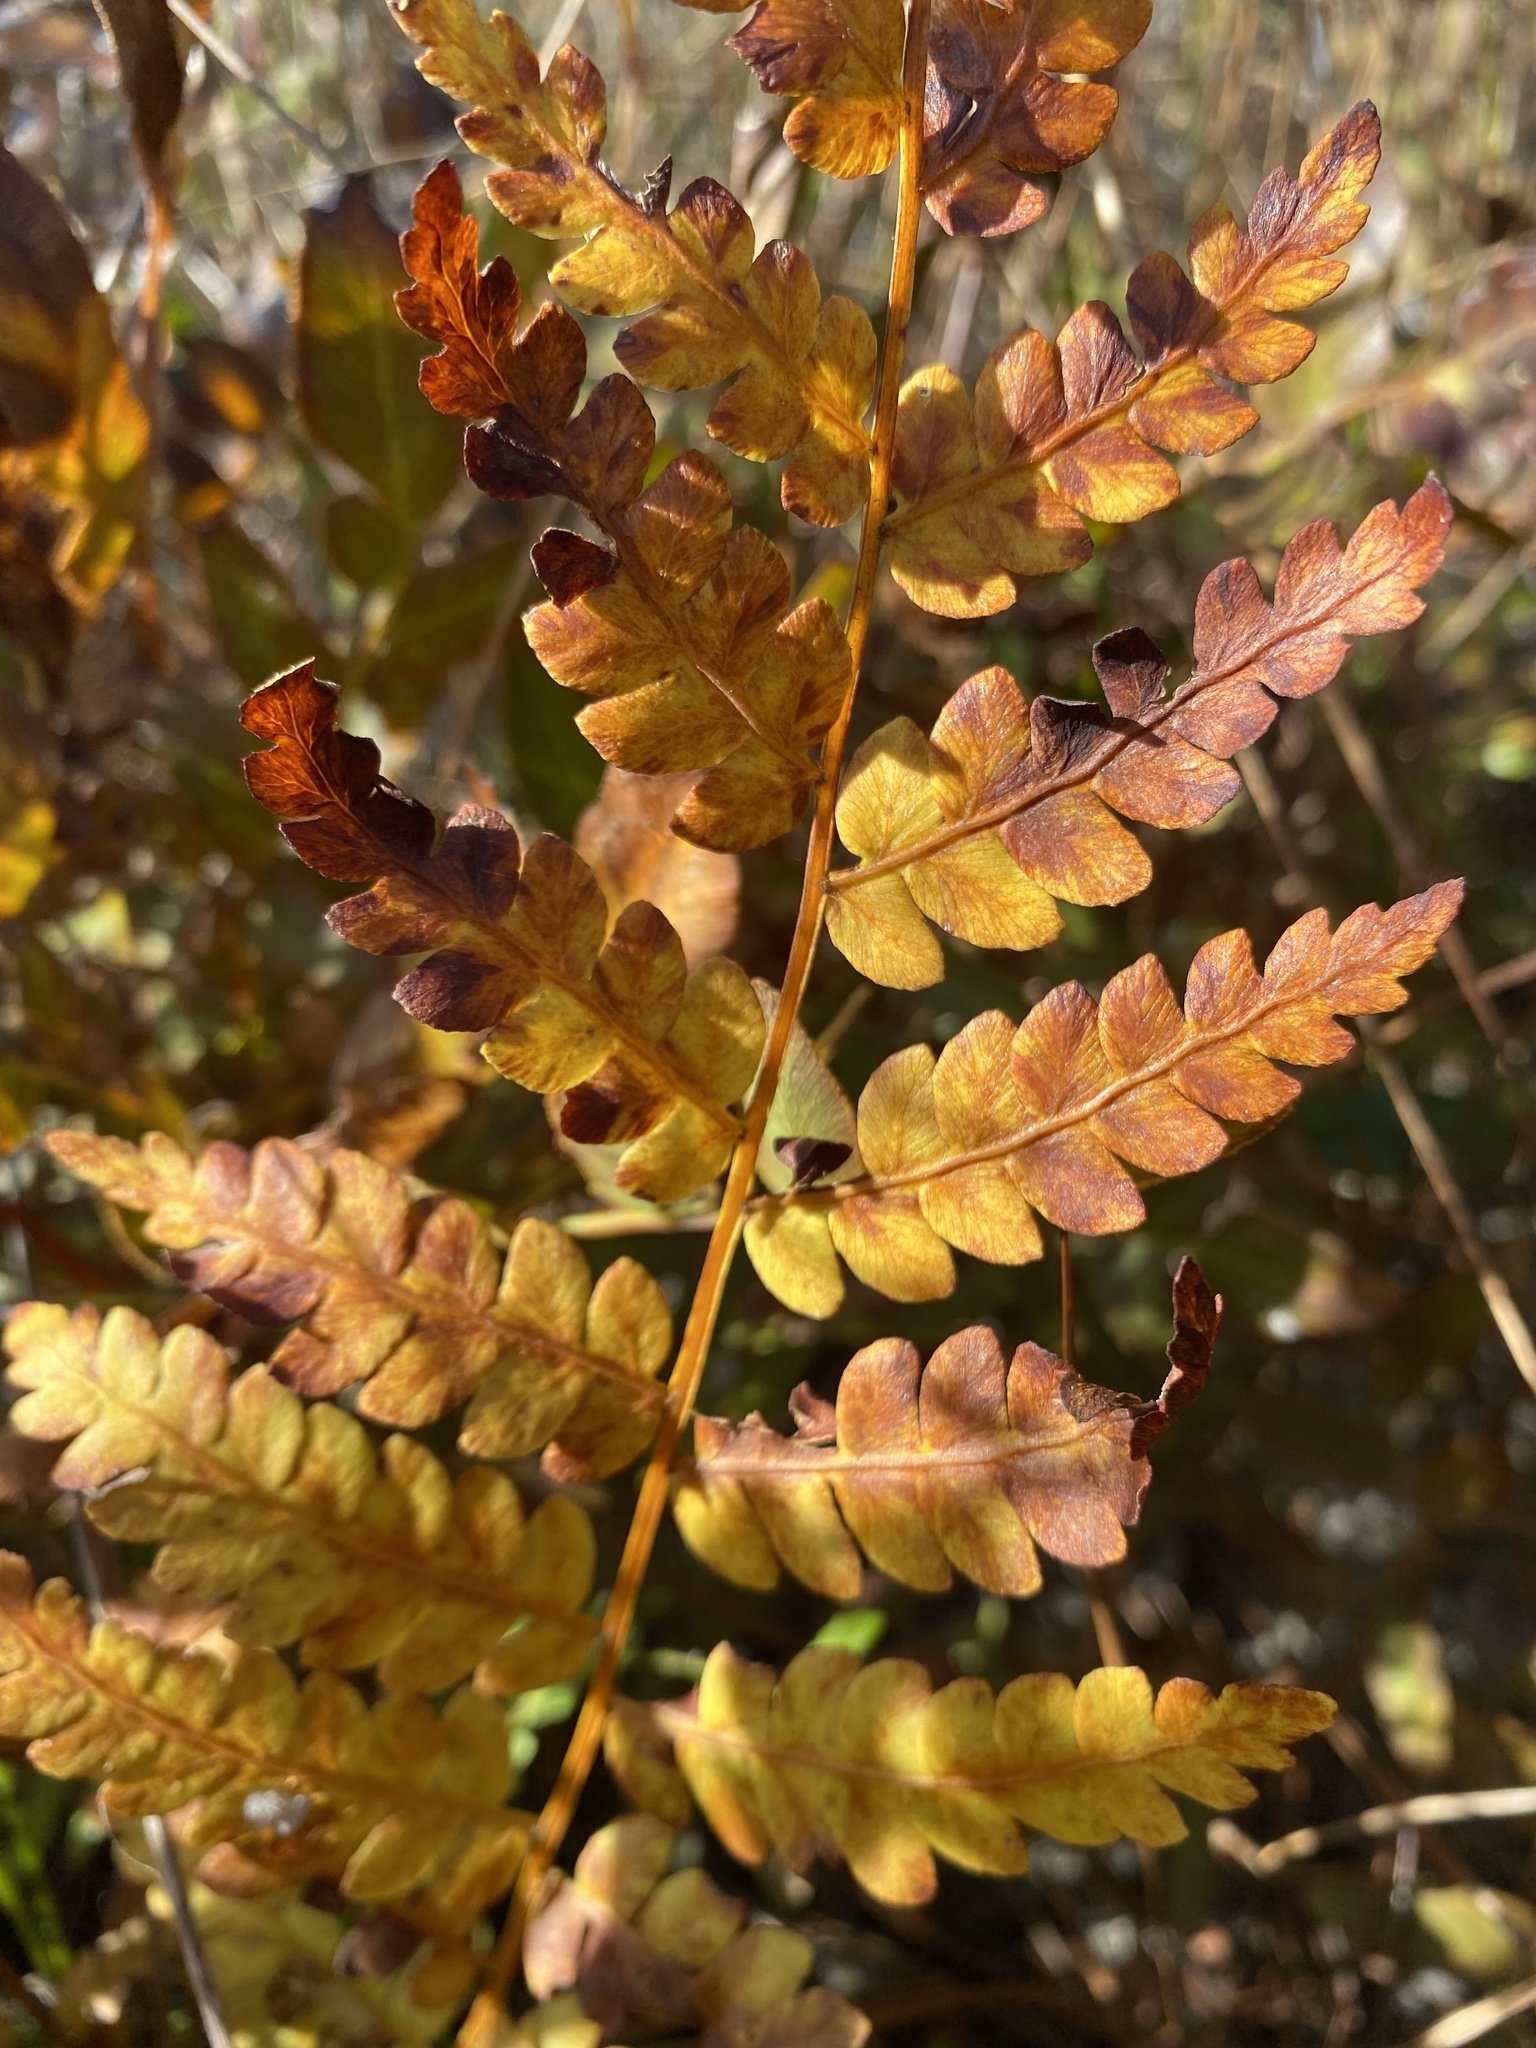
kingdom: Plantae
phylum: Tracheophyta
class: Polypodiopsida
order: Osmundales
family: Osmundaceae
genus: Osmundastrum
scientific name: Osmundastrum cinnamomeum
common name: Cinnamon fern
